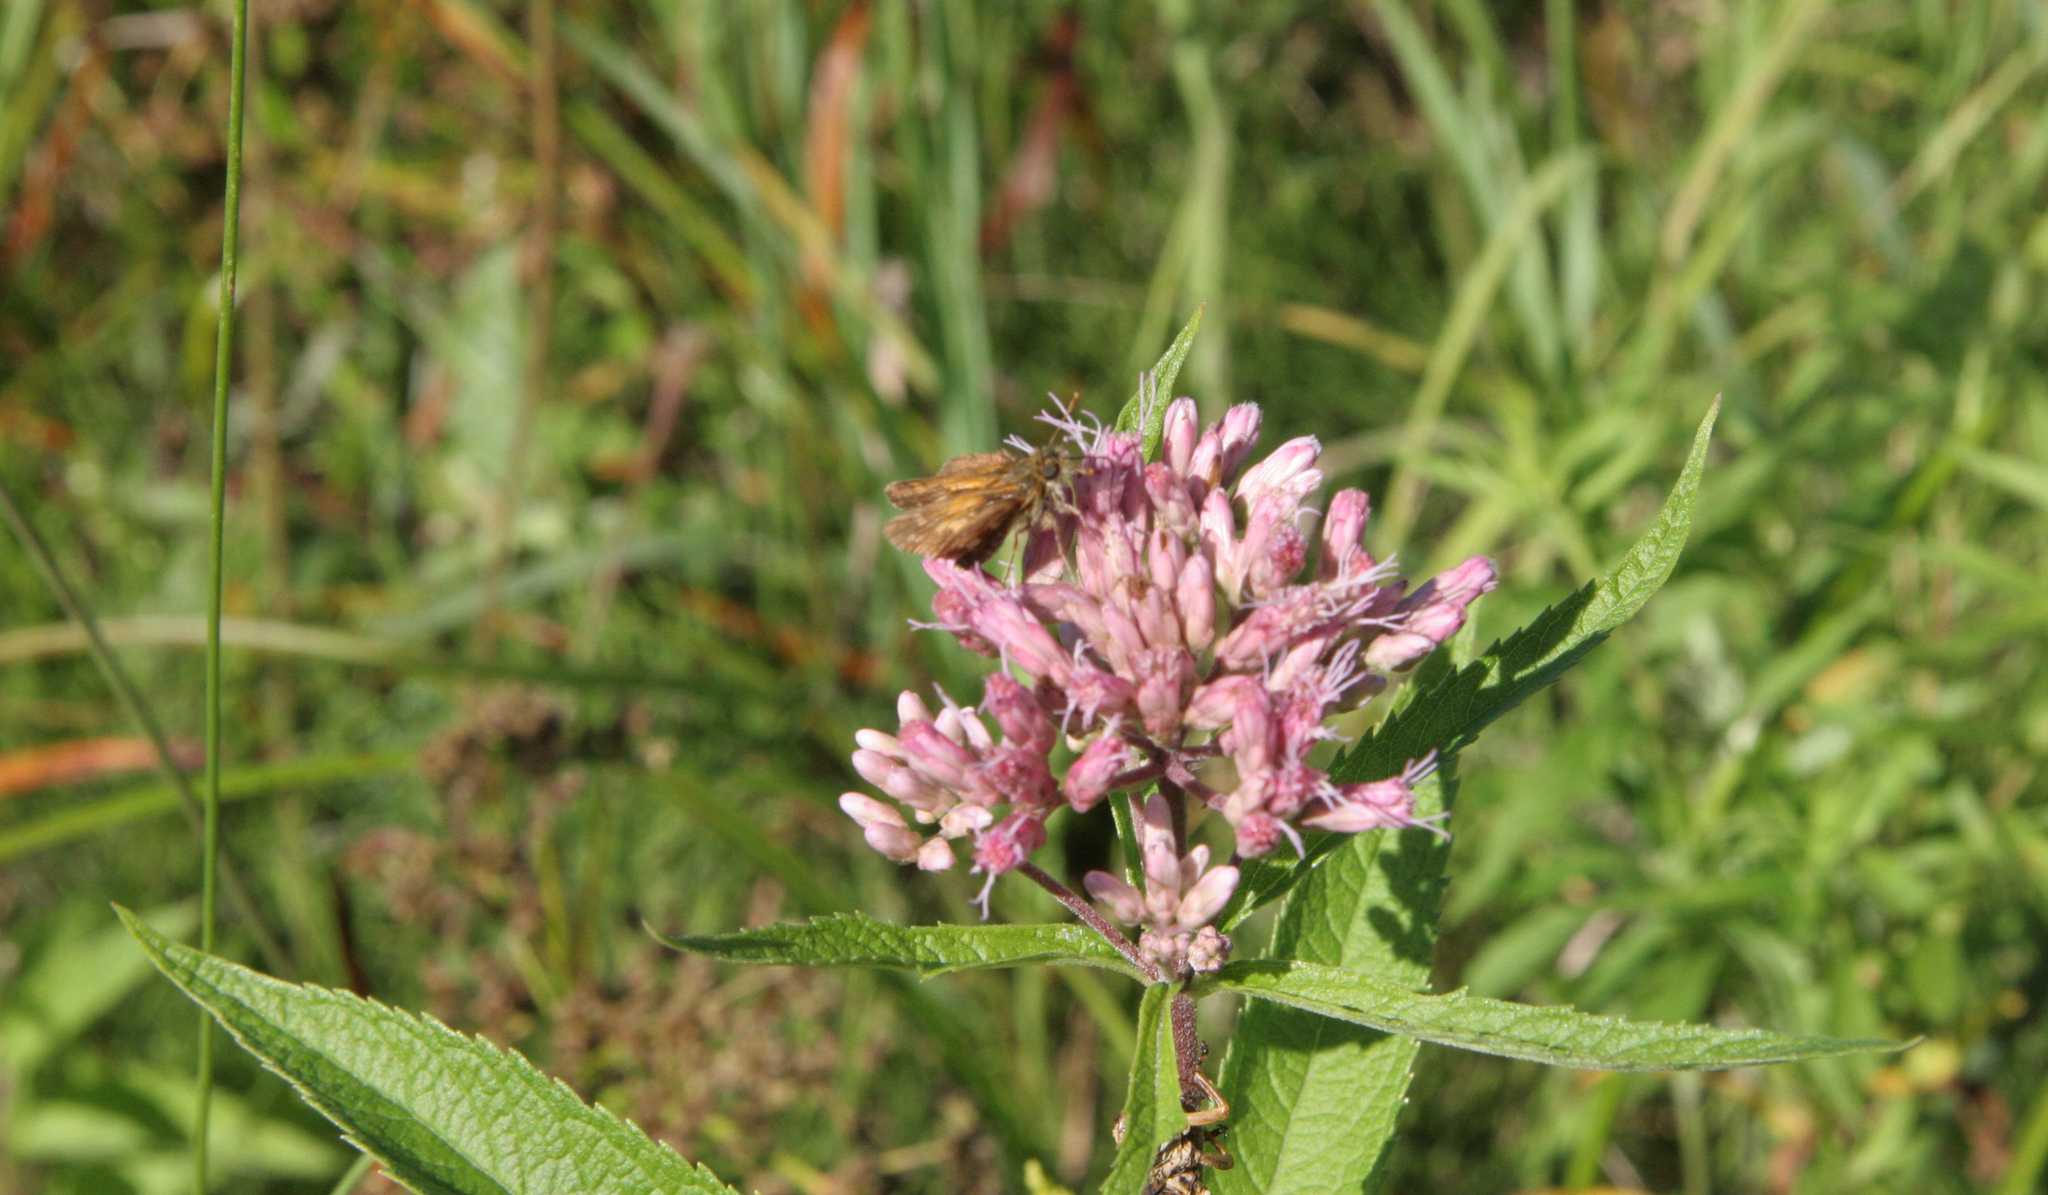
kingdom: Plantae
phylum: Tracheophyta
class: Magnoliopsida
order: Asterales
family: Asteraceae
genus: Eutrochium
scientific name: Eutrochium maculatum
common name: Spotted joe pye weed
